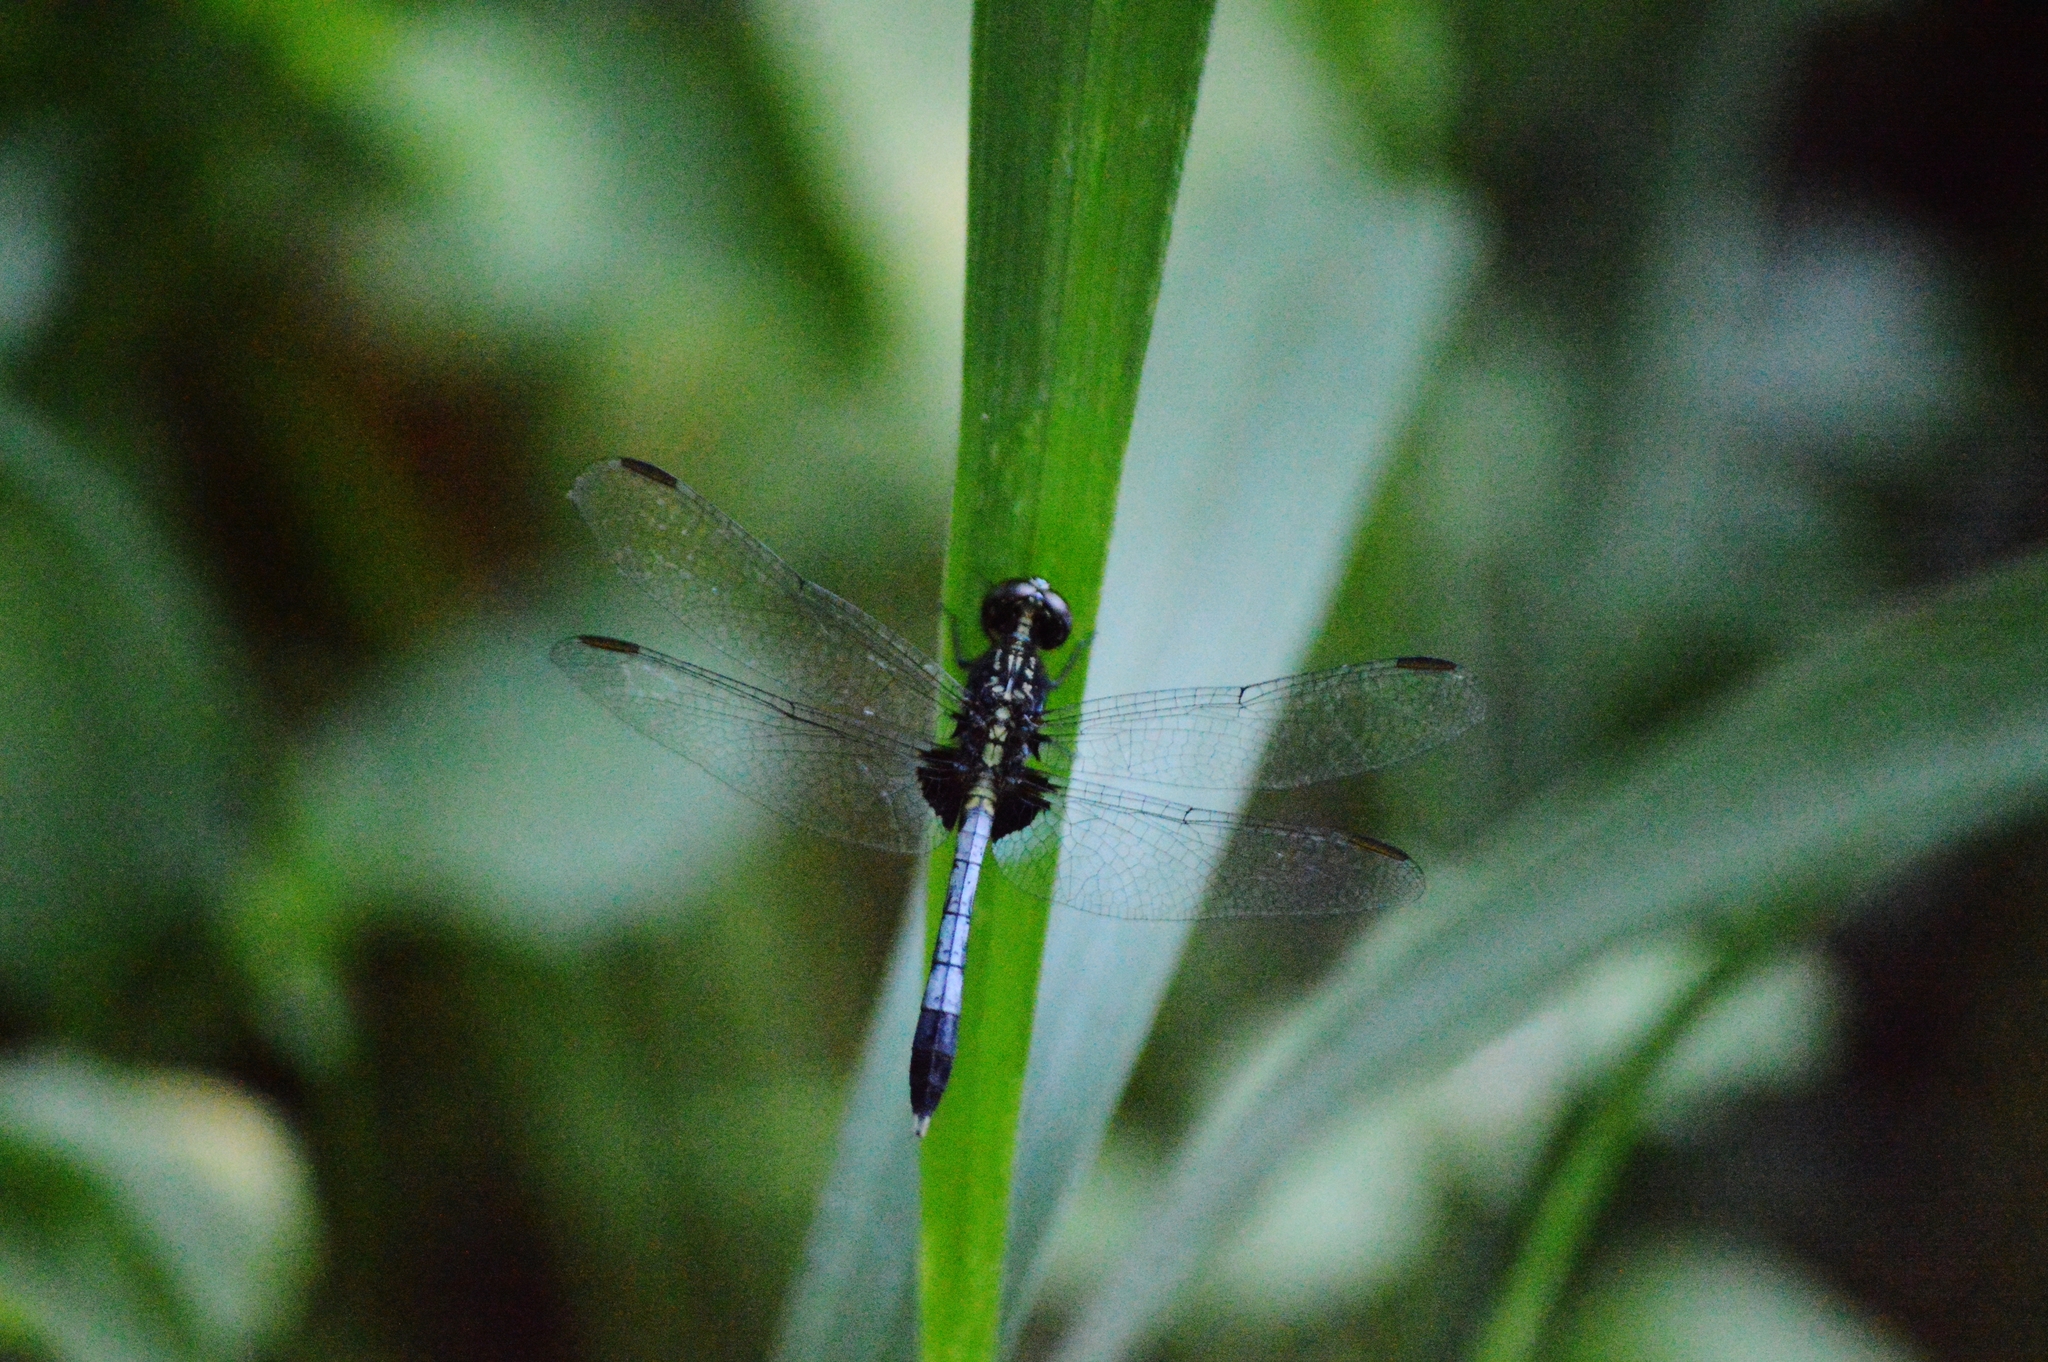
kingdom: Animalia
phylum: Arthropoda
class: Insecta
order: Odonata
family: Libellulidae
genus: Erythrodiplax
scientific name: Erythrodiplax avittata
